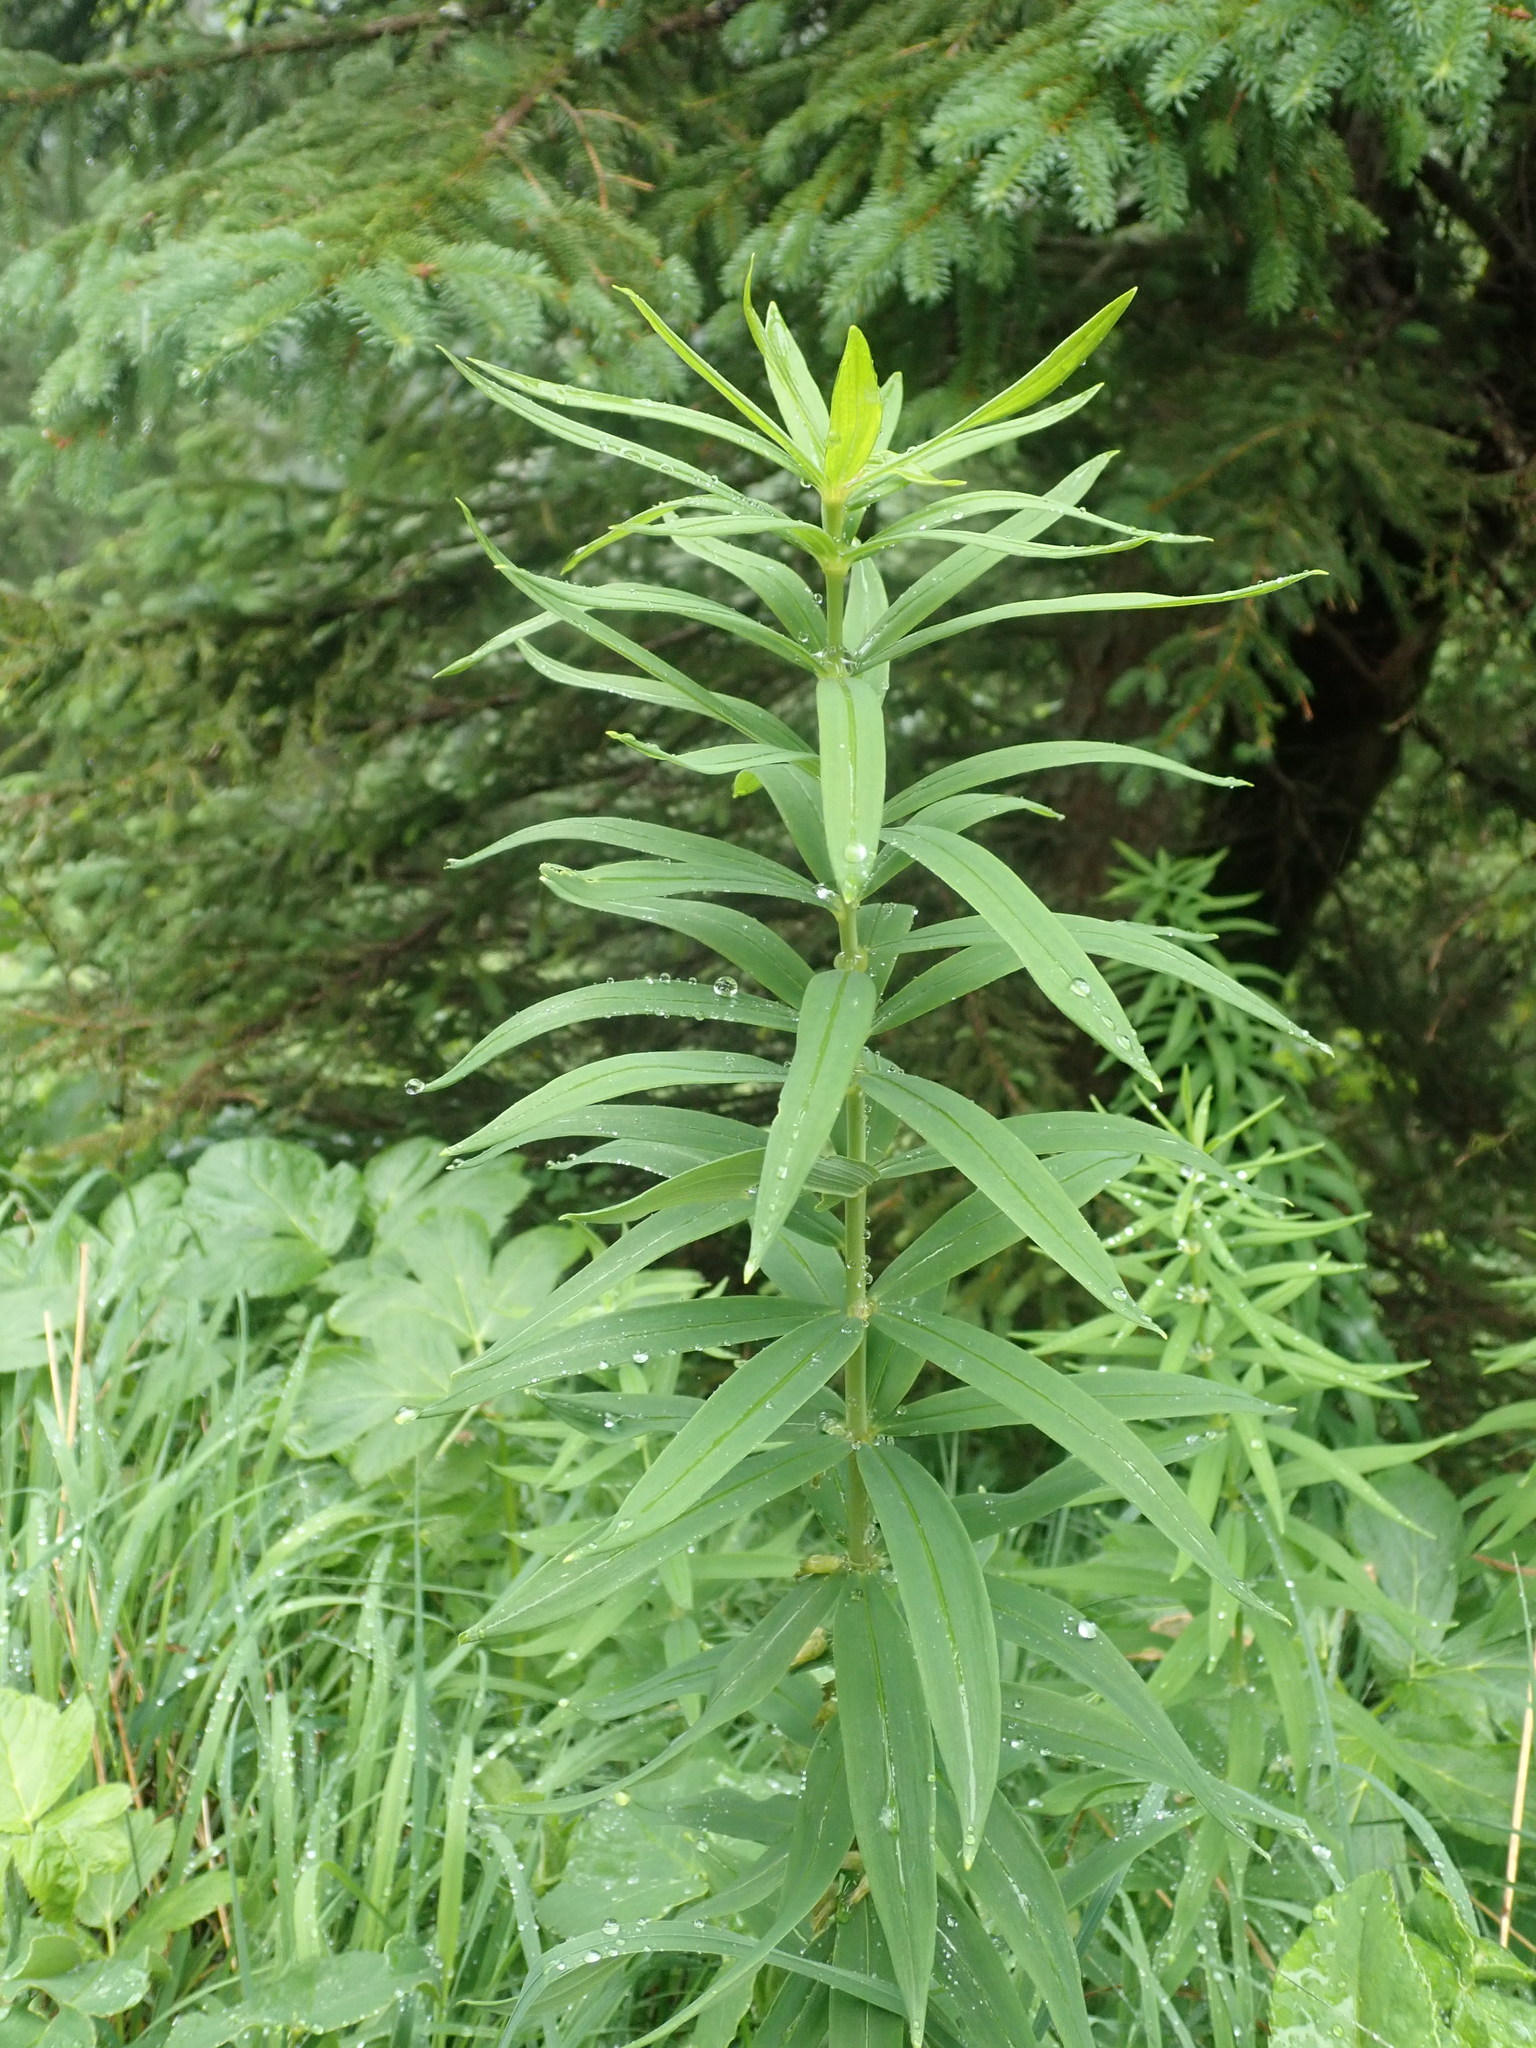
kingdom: Plantae
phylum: Tracheophyta
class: Liliopsida
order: Asparagales
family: Asparagaceae
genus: Polygonatum
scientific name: Polygonatum verticillatum
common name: Whorled solomon's-seal
